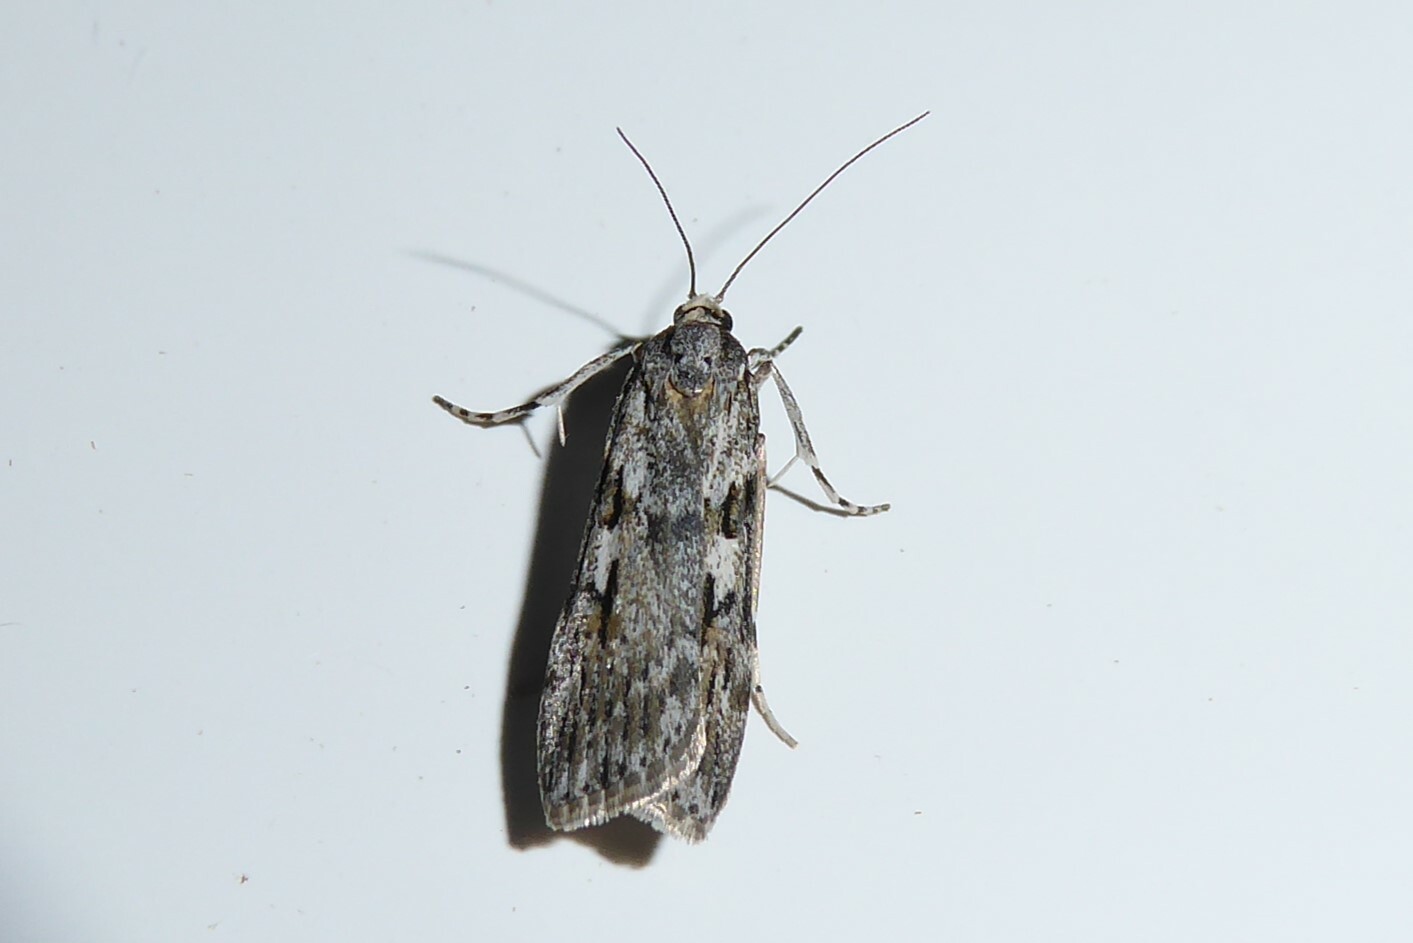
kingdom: Animalia
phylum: Arthropoda
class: Insecta
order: Lepidoptera
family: Crambidae
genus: Scoparia
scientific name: Scoparia halopis
